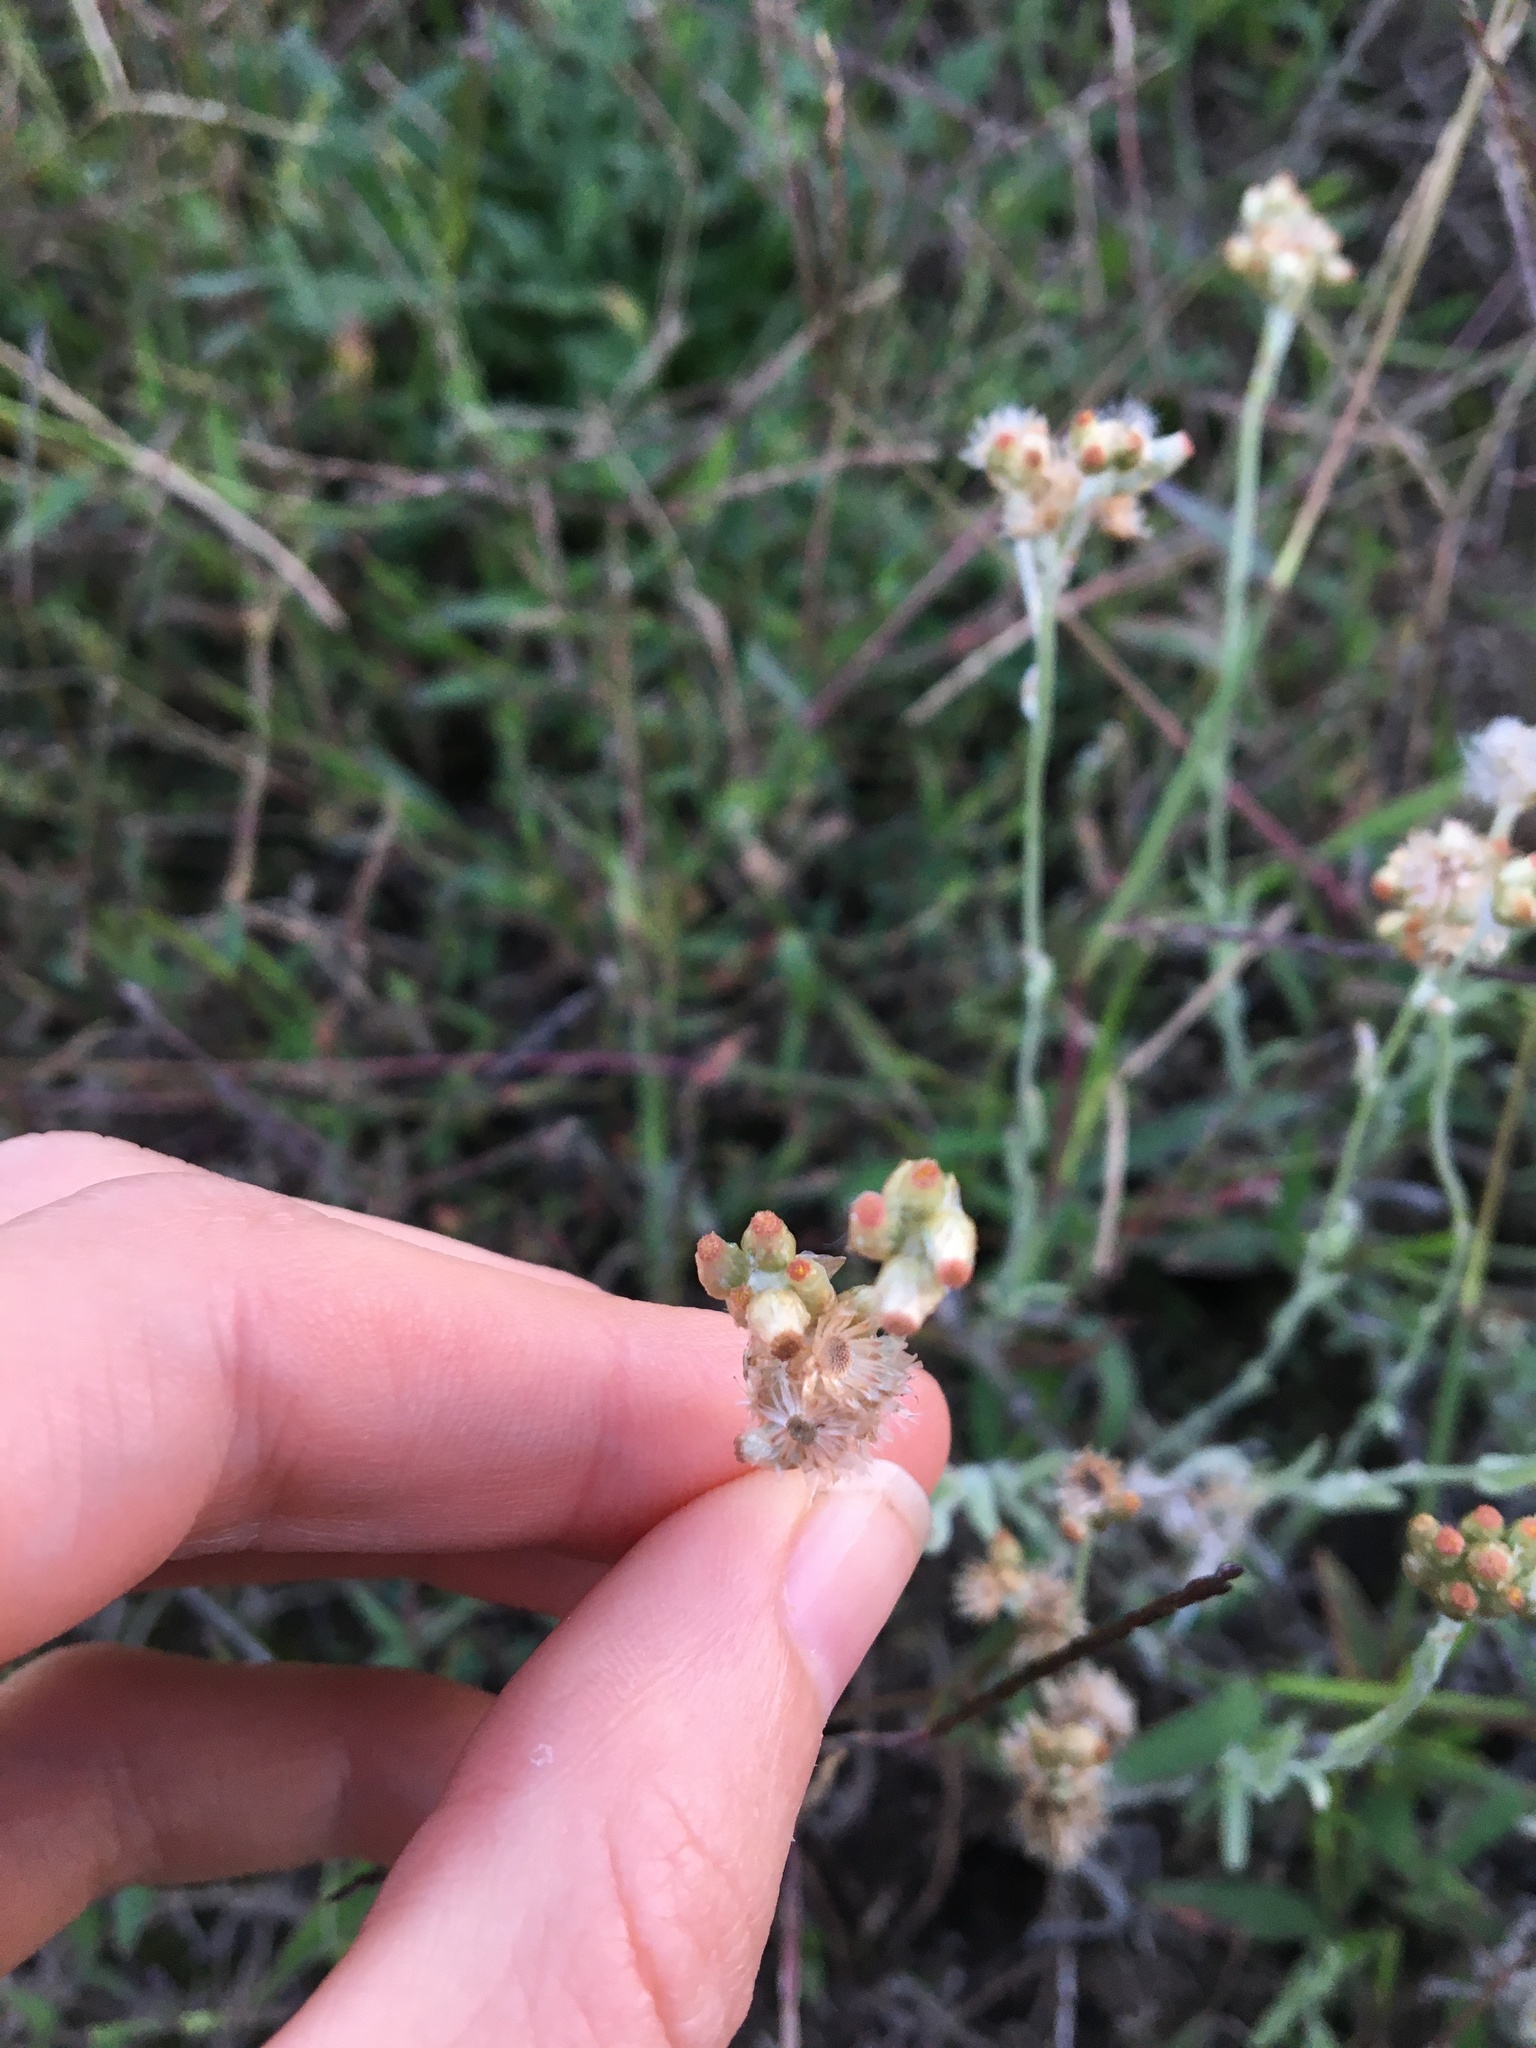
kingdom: Plantae
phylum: Tracheophyta
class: Magnoliopsida
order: Asterales
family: Asteraceae
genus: Anaphalis
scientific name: Anaphalis margaritacea
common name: Pearly everlasting
